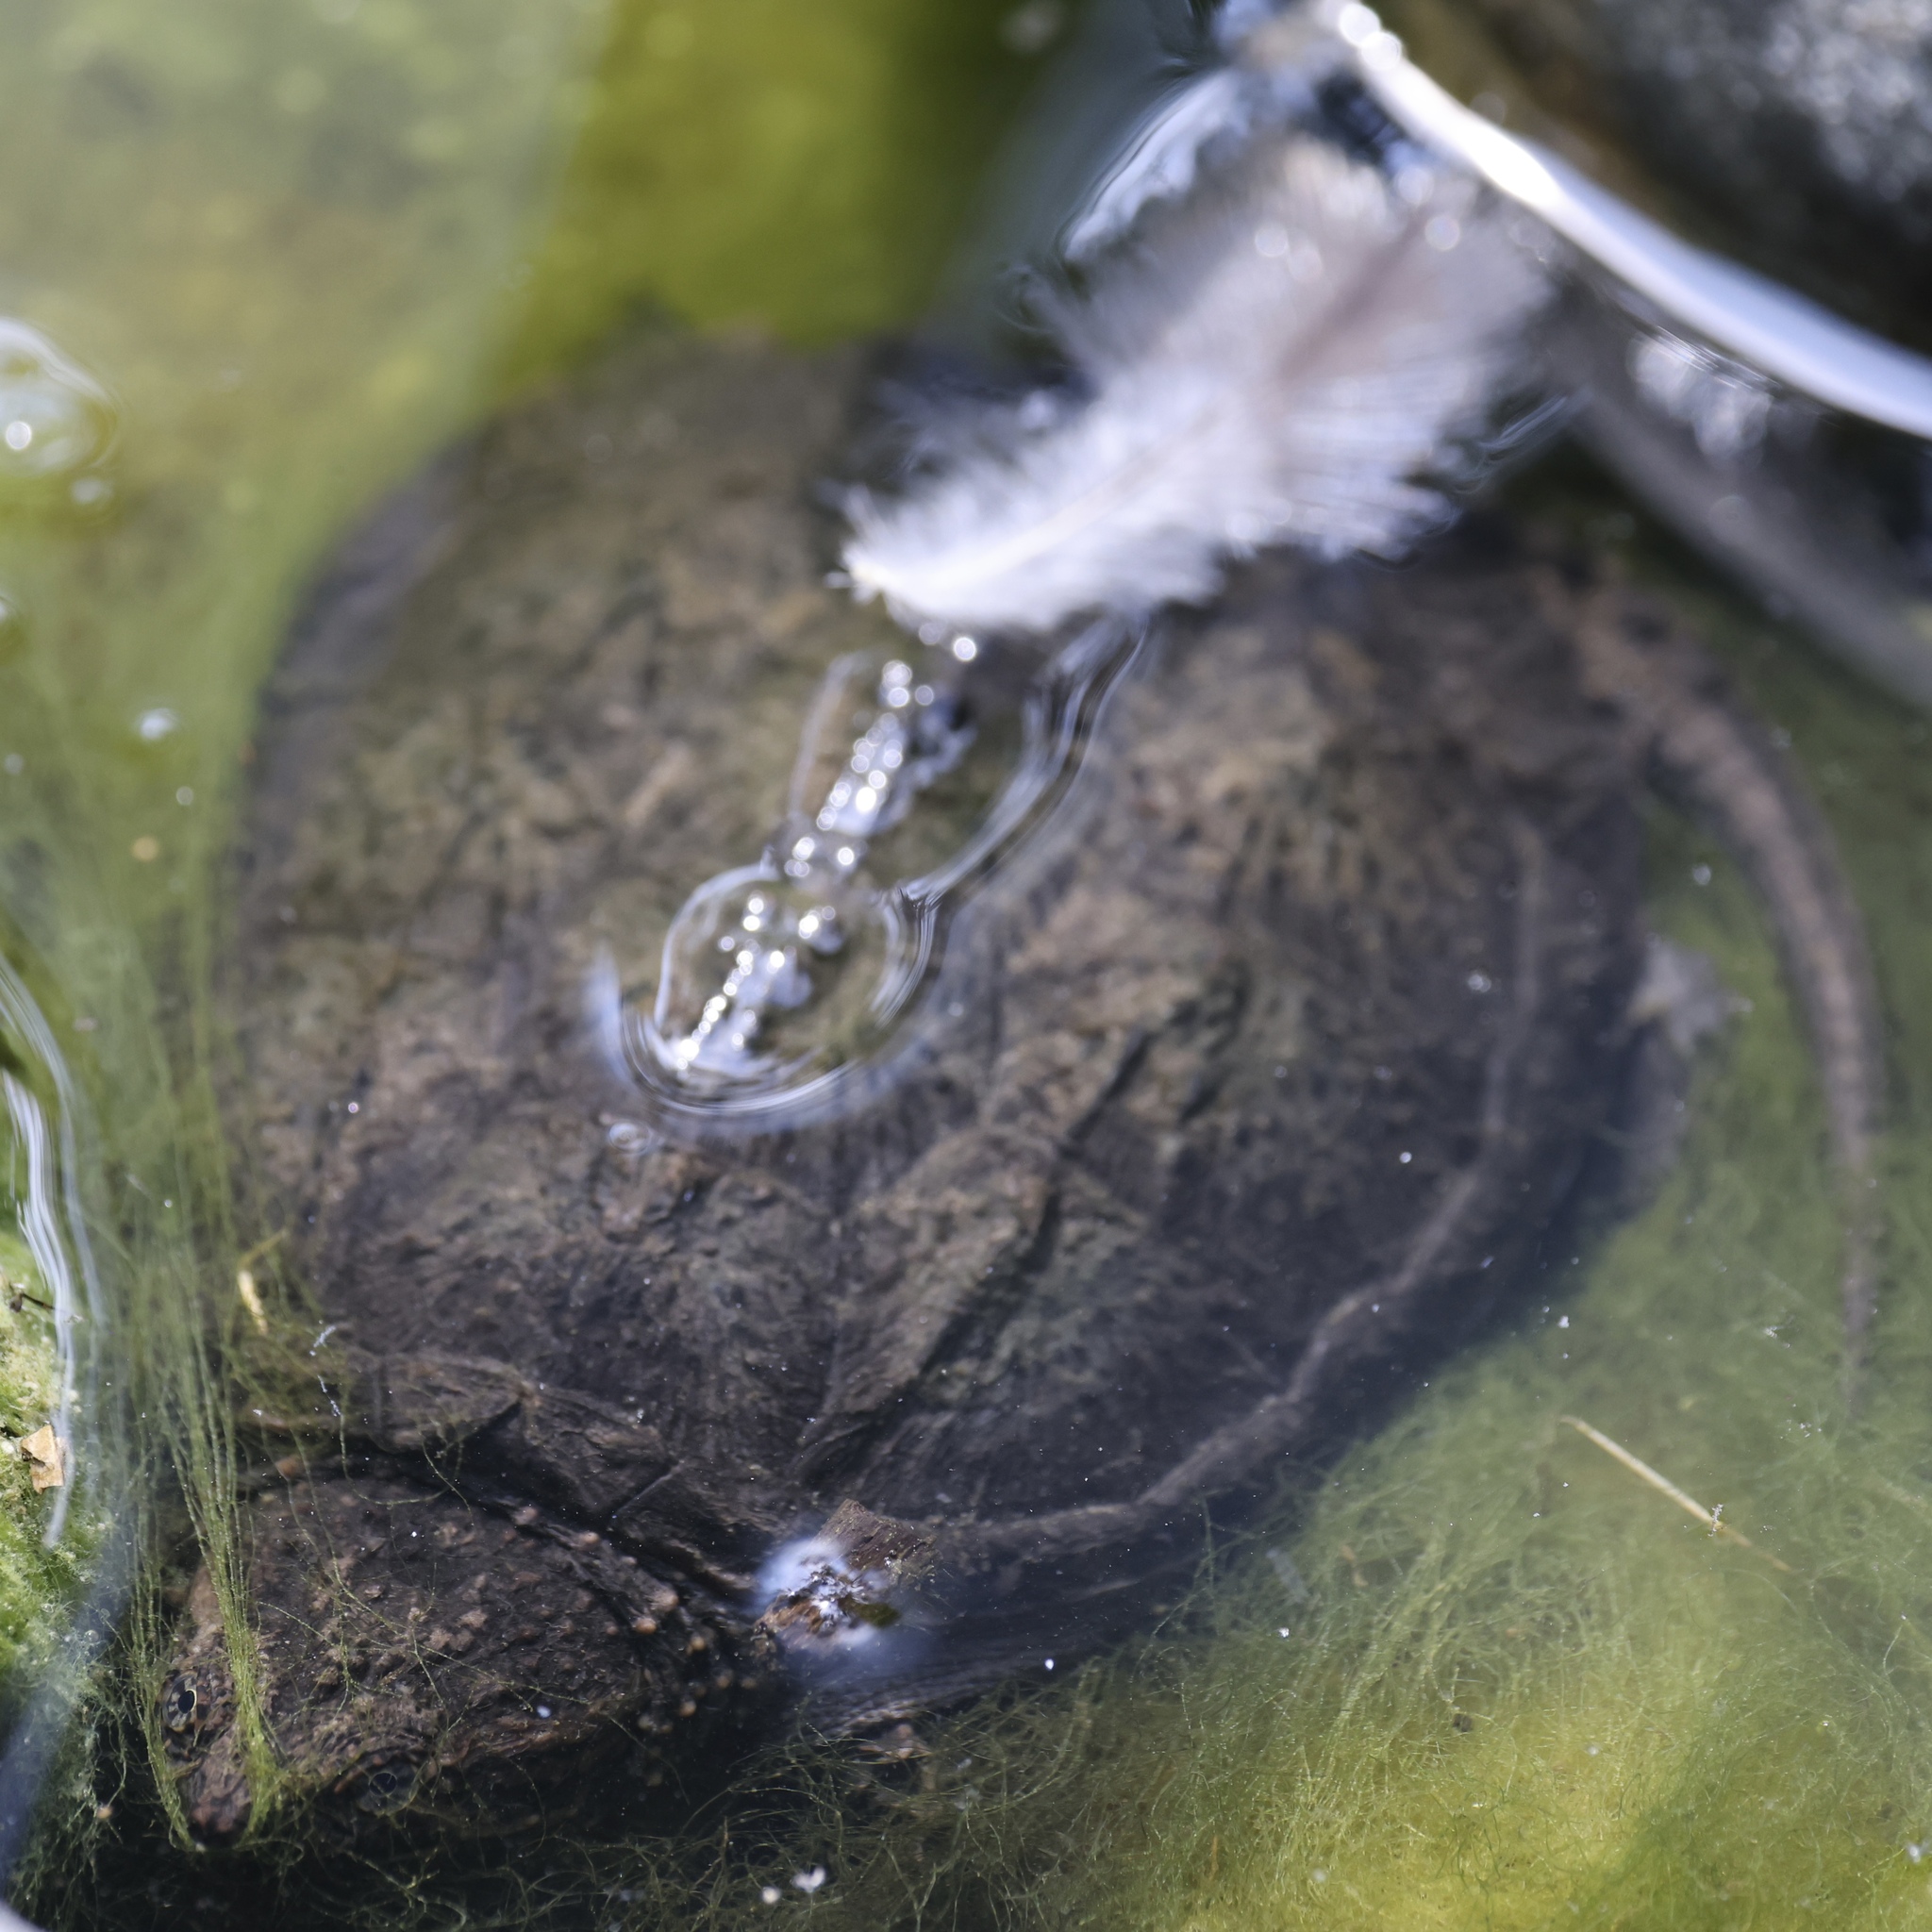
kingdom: Animalia
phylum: Chordata
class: Testudines
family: Chelydridae
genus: Chelydra
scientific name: Chelydra serpentina
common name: Common snapping turtle
